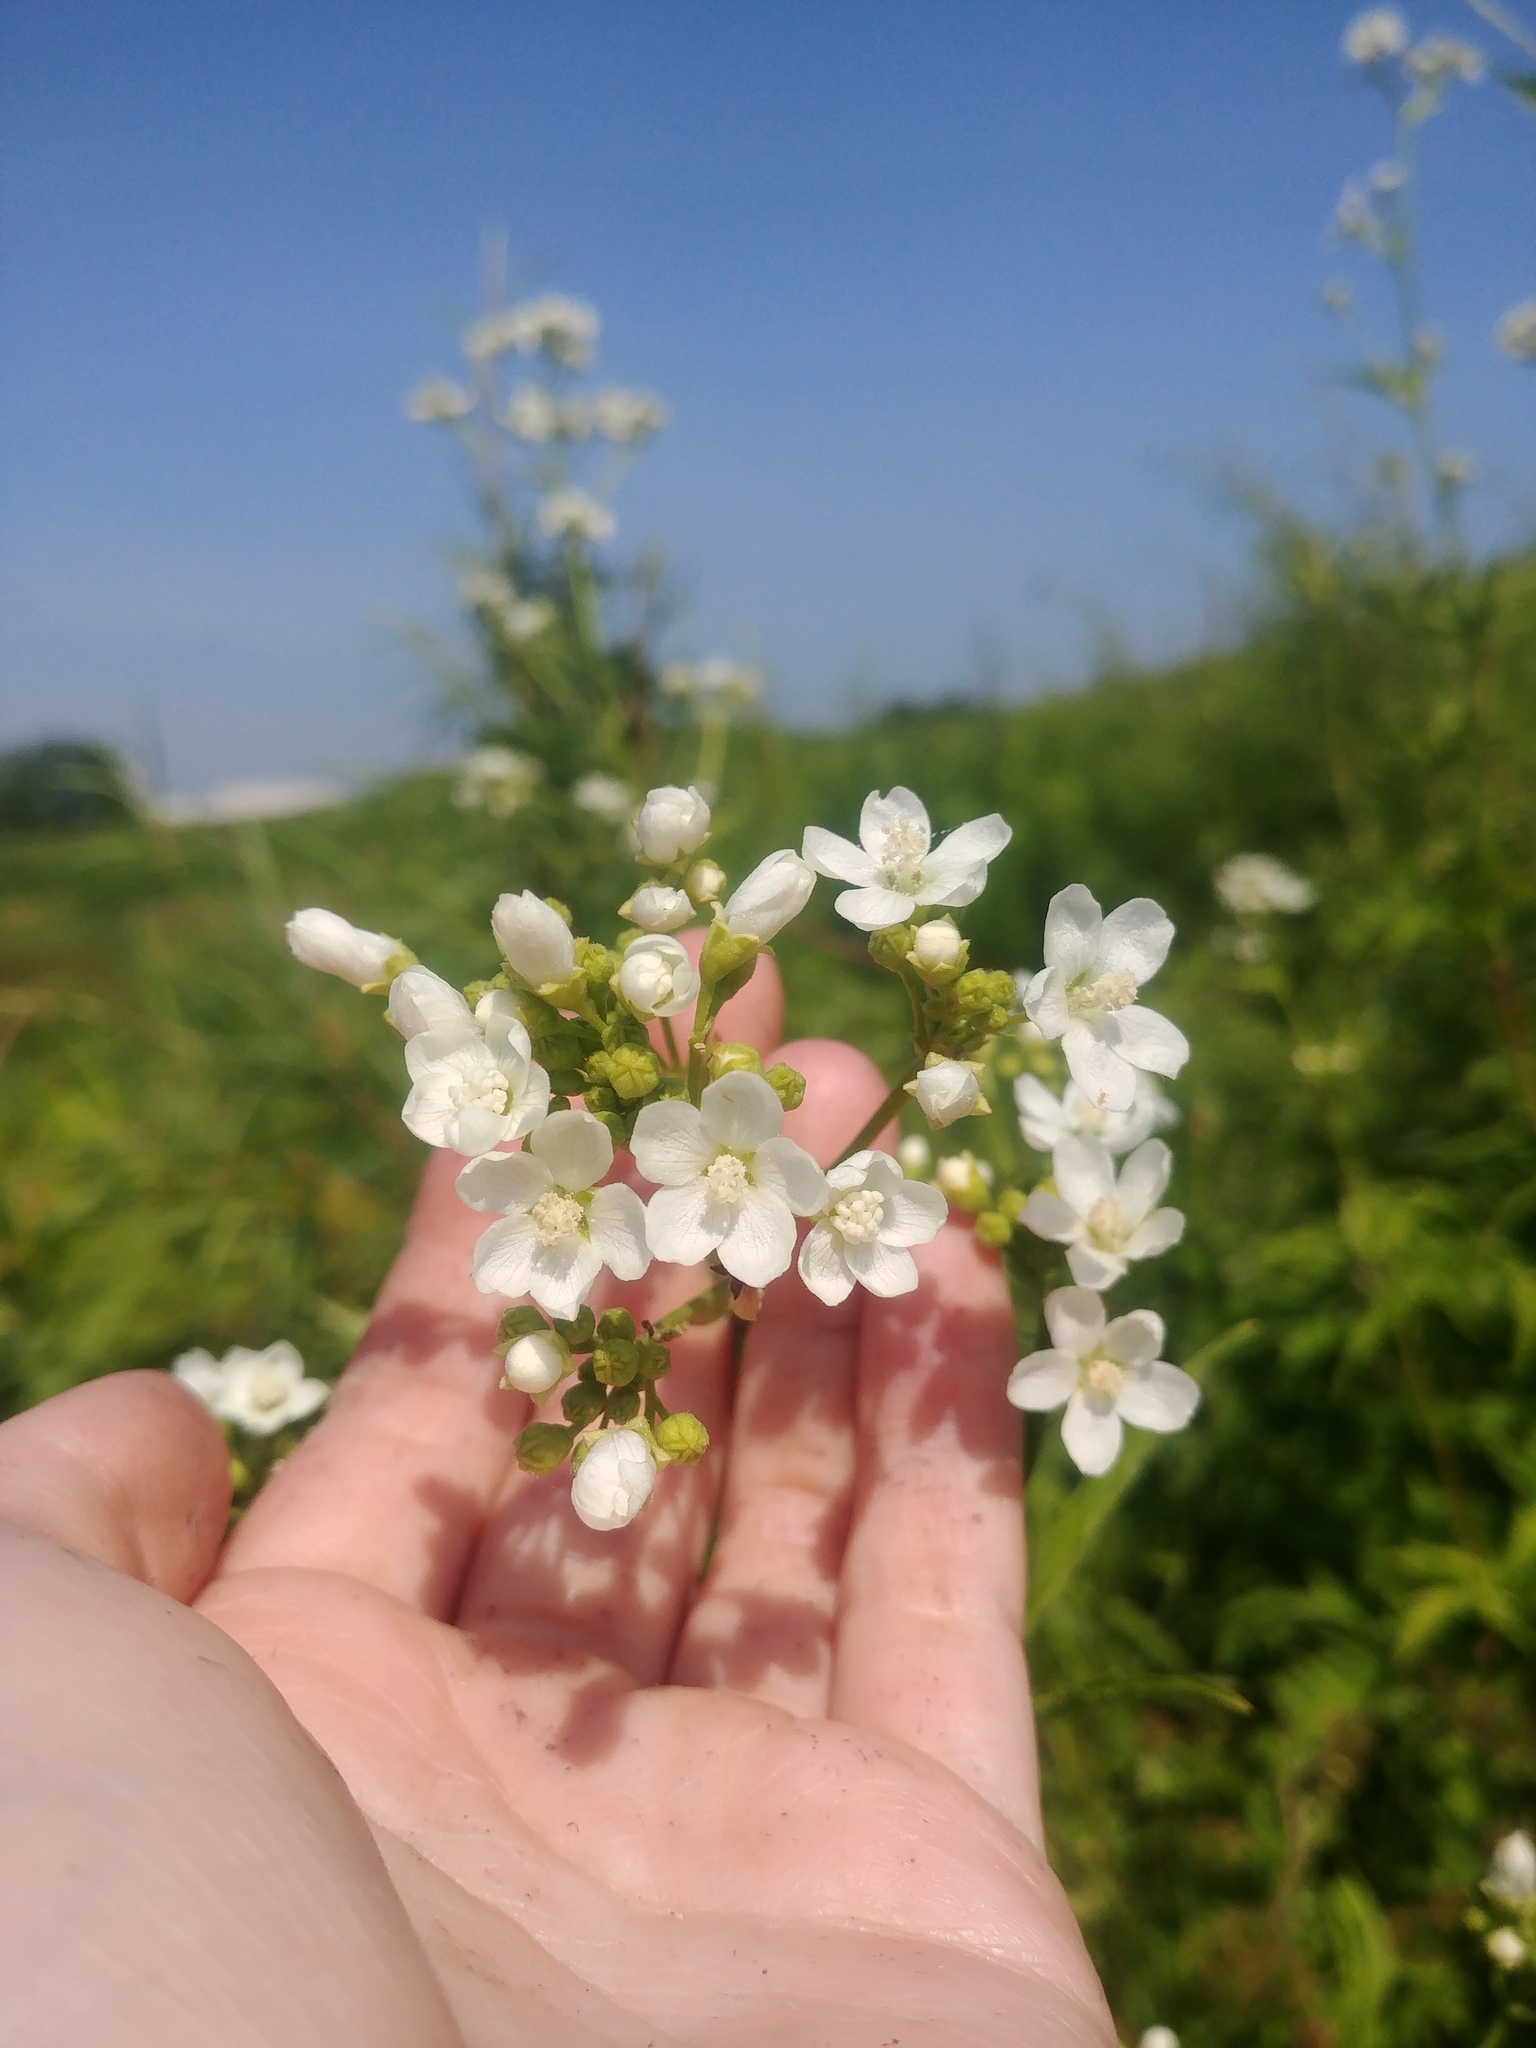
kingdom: Plantae
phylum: Tracheophyta
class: Magnoliopsida
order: Malvales
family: Malvaceae
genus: Napaea
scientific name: Napaea dioica
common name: Glade-mallow
